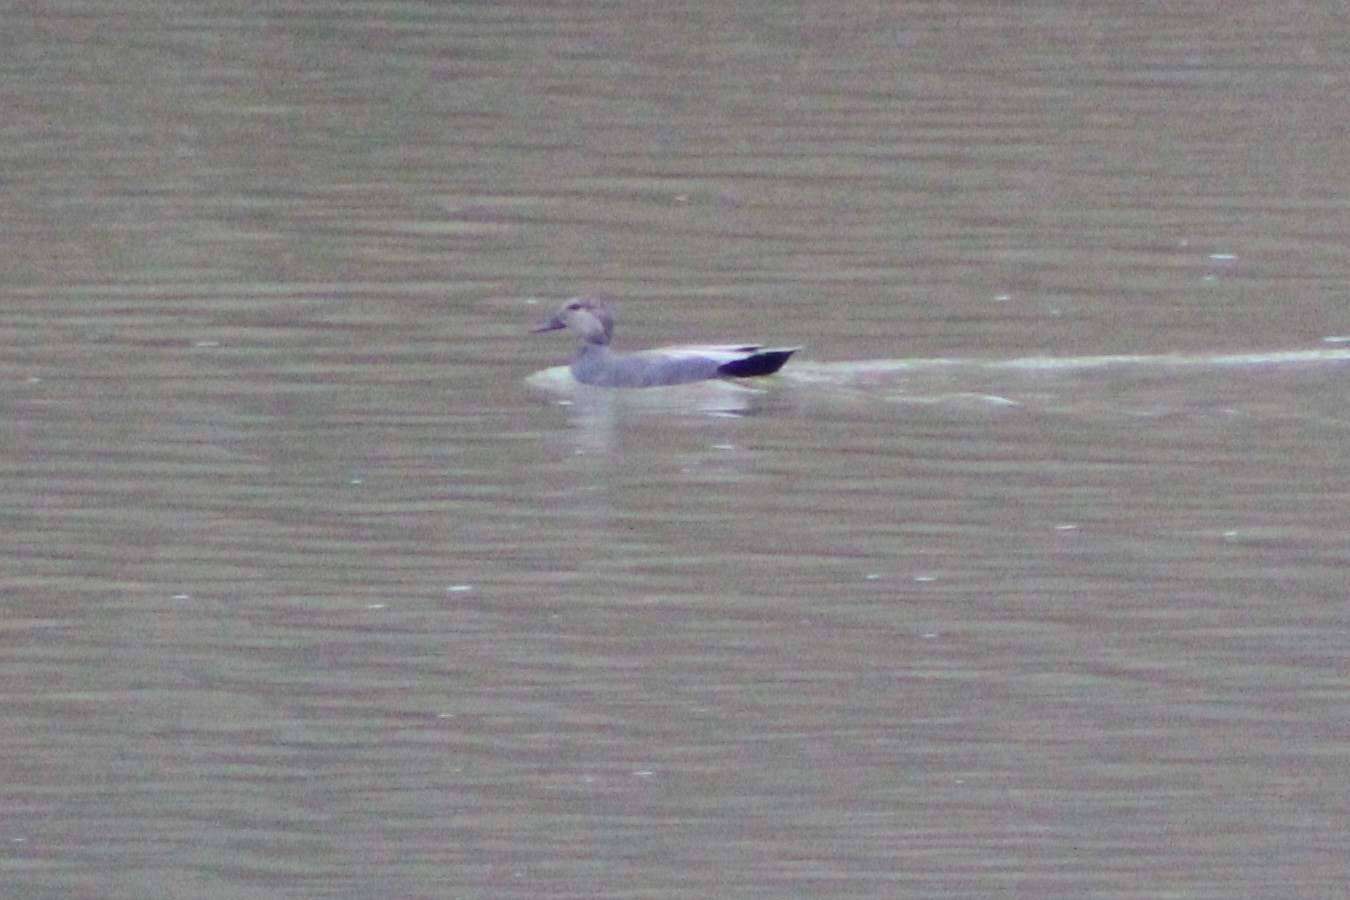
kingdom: Animalia
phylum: Chordata
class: Aves
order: Anseriformes
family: Anatidae
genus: Mareca
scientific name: Mareca strepera
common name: Gadwall
